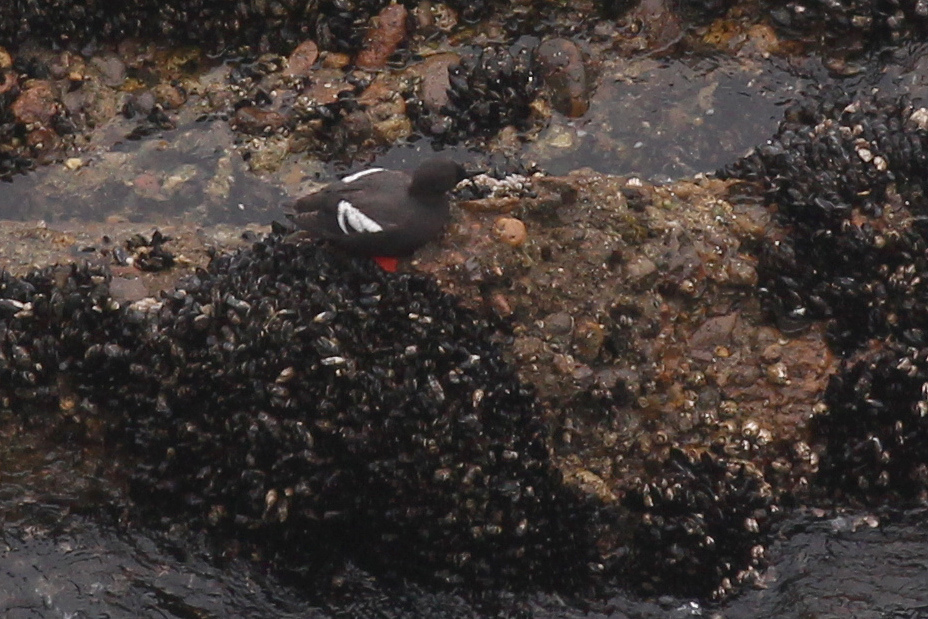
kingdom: Animalia
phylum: Chordata
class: Aves
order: Charadriiformes
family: Alcidae
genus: Cepphus
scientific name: Cepphus columba
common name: Pigeon guillemot
